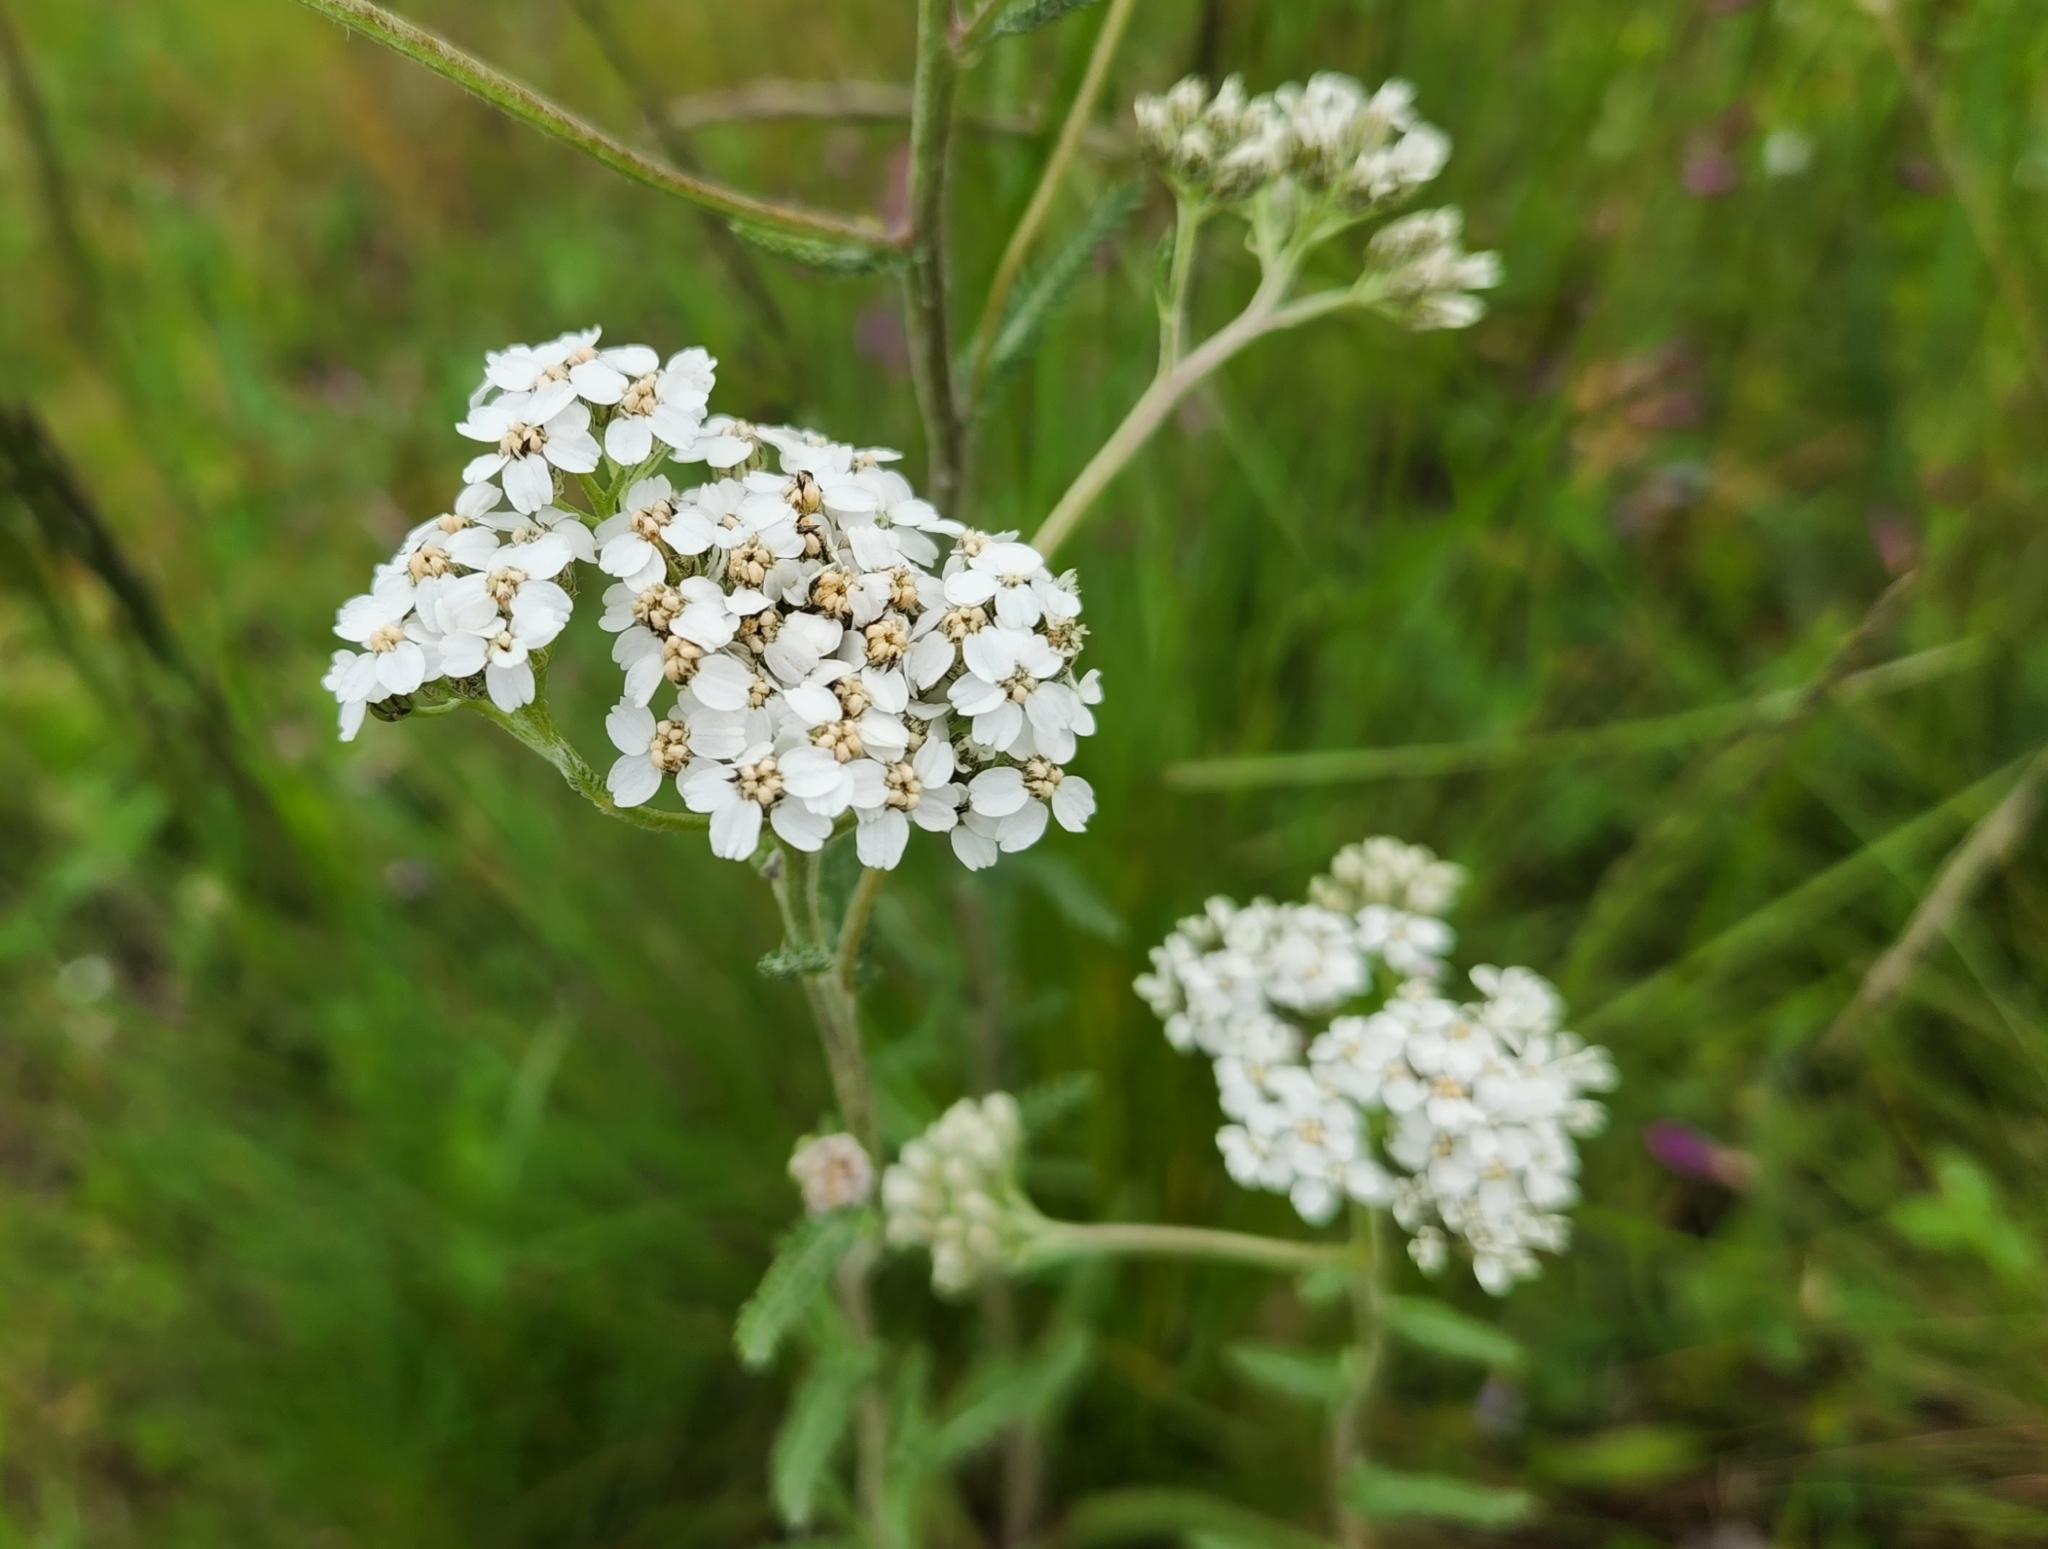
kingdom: Plantae
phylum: Tracheophyta
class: Magnoliopsida
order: Asterales
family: Asteraceae
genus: Achillea
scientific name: Achillea millefolium
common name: Yarrow
